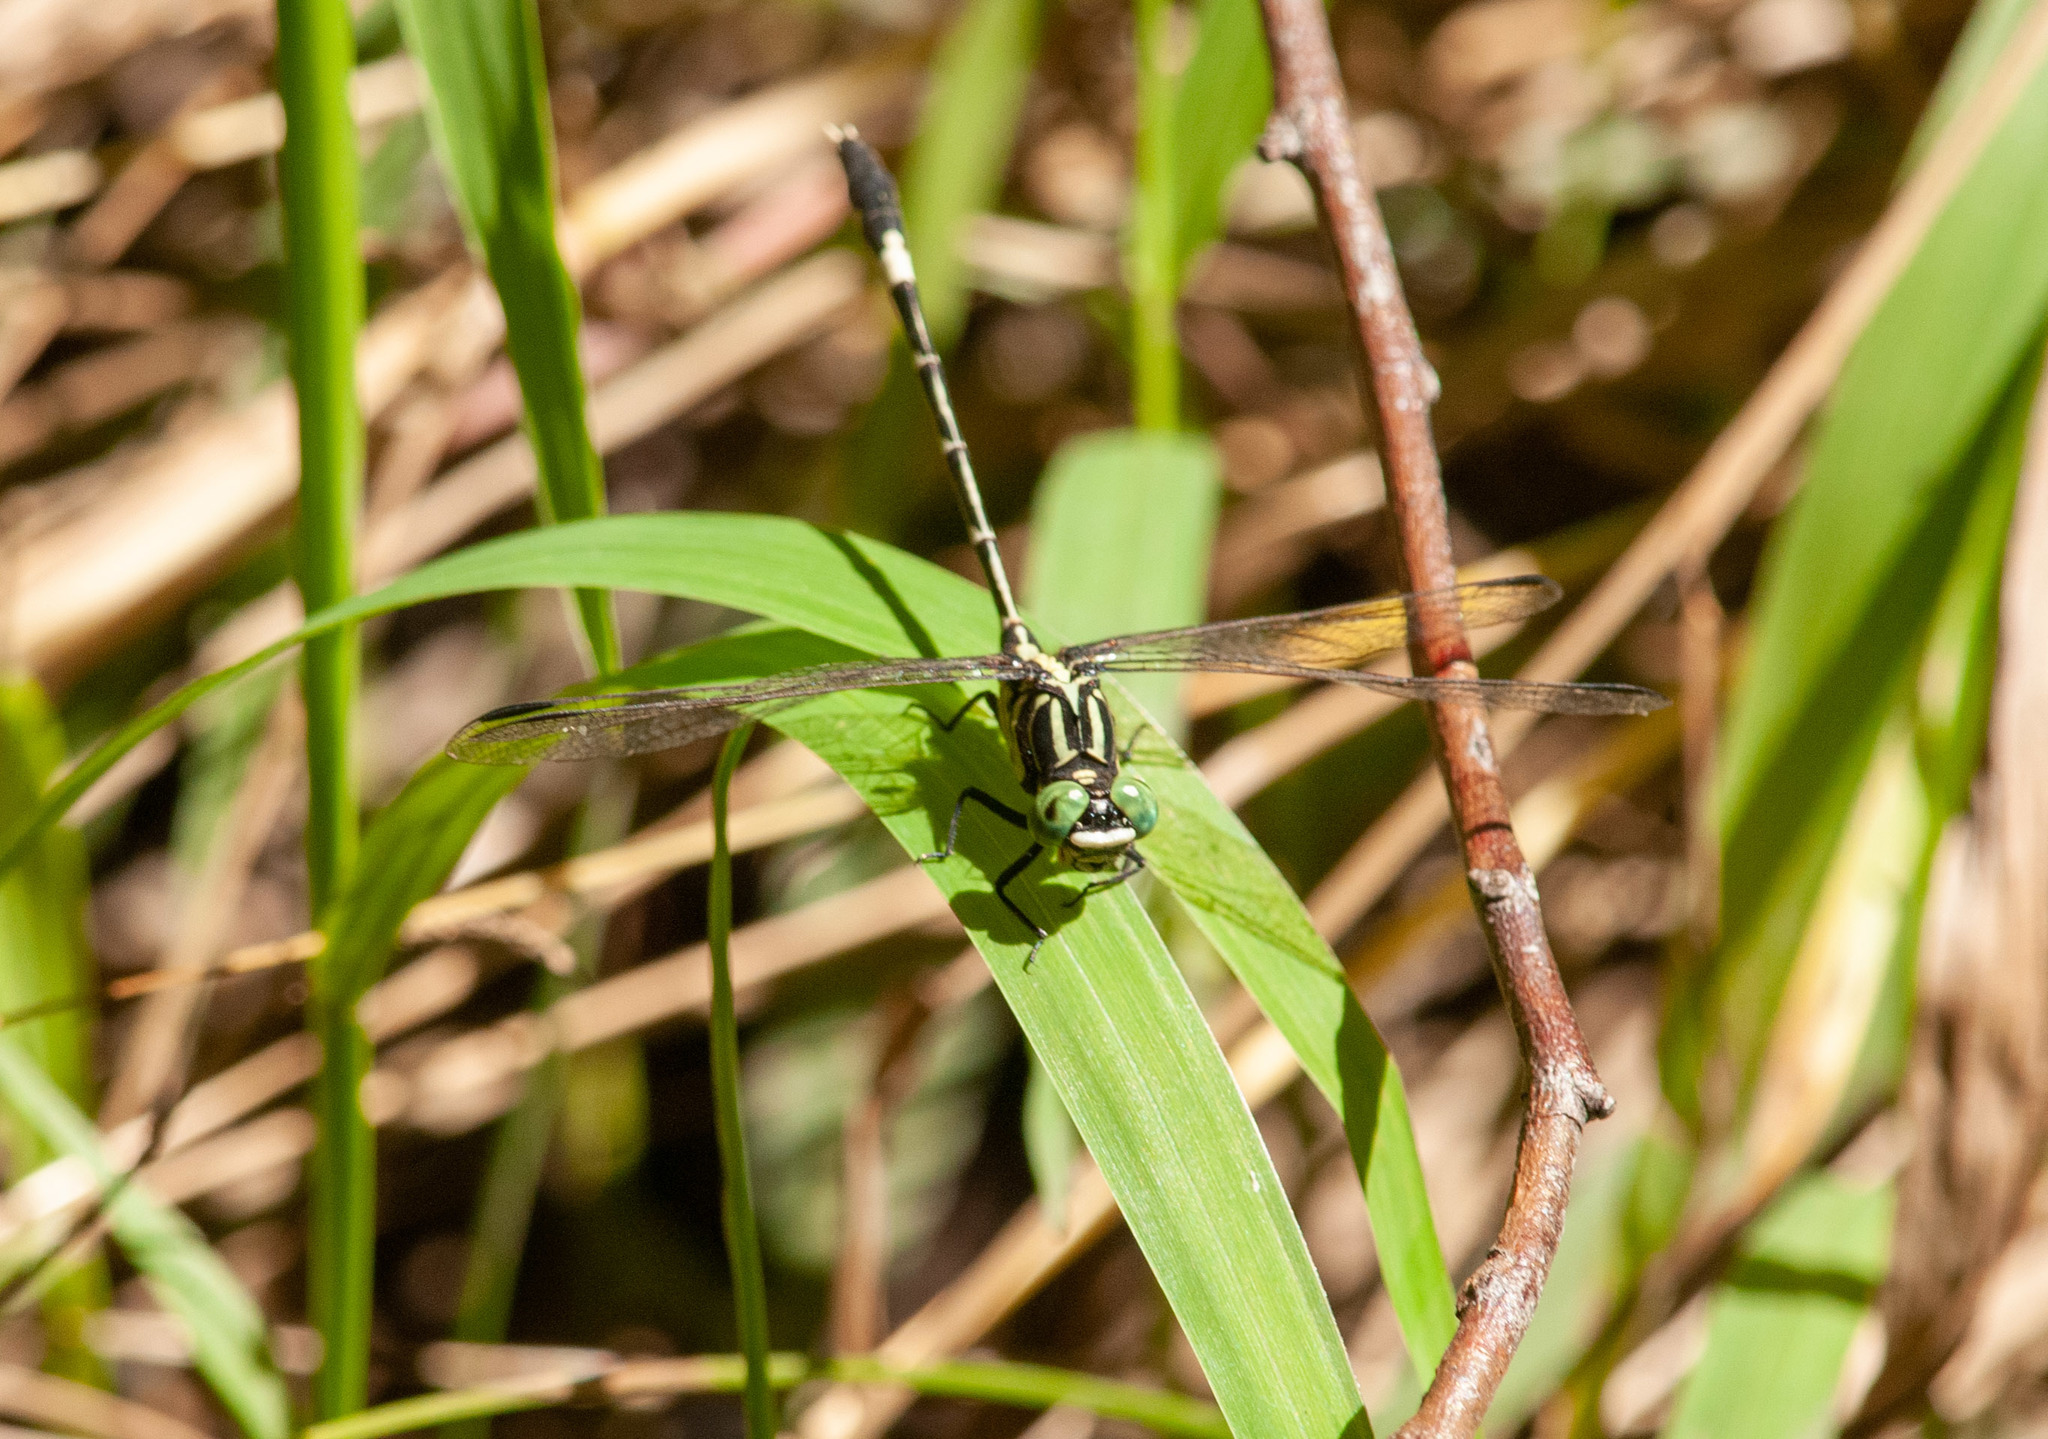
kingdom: Animalia
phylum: Arthropoda
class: Insecta
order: Odonata
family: Gomphidae
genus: Austrogomphus
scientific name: Austrogomphus amphiclitus
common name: Pale hunter
